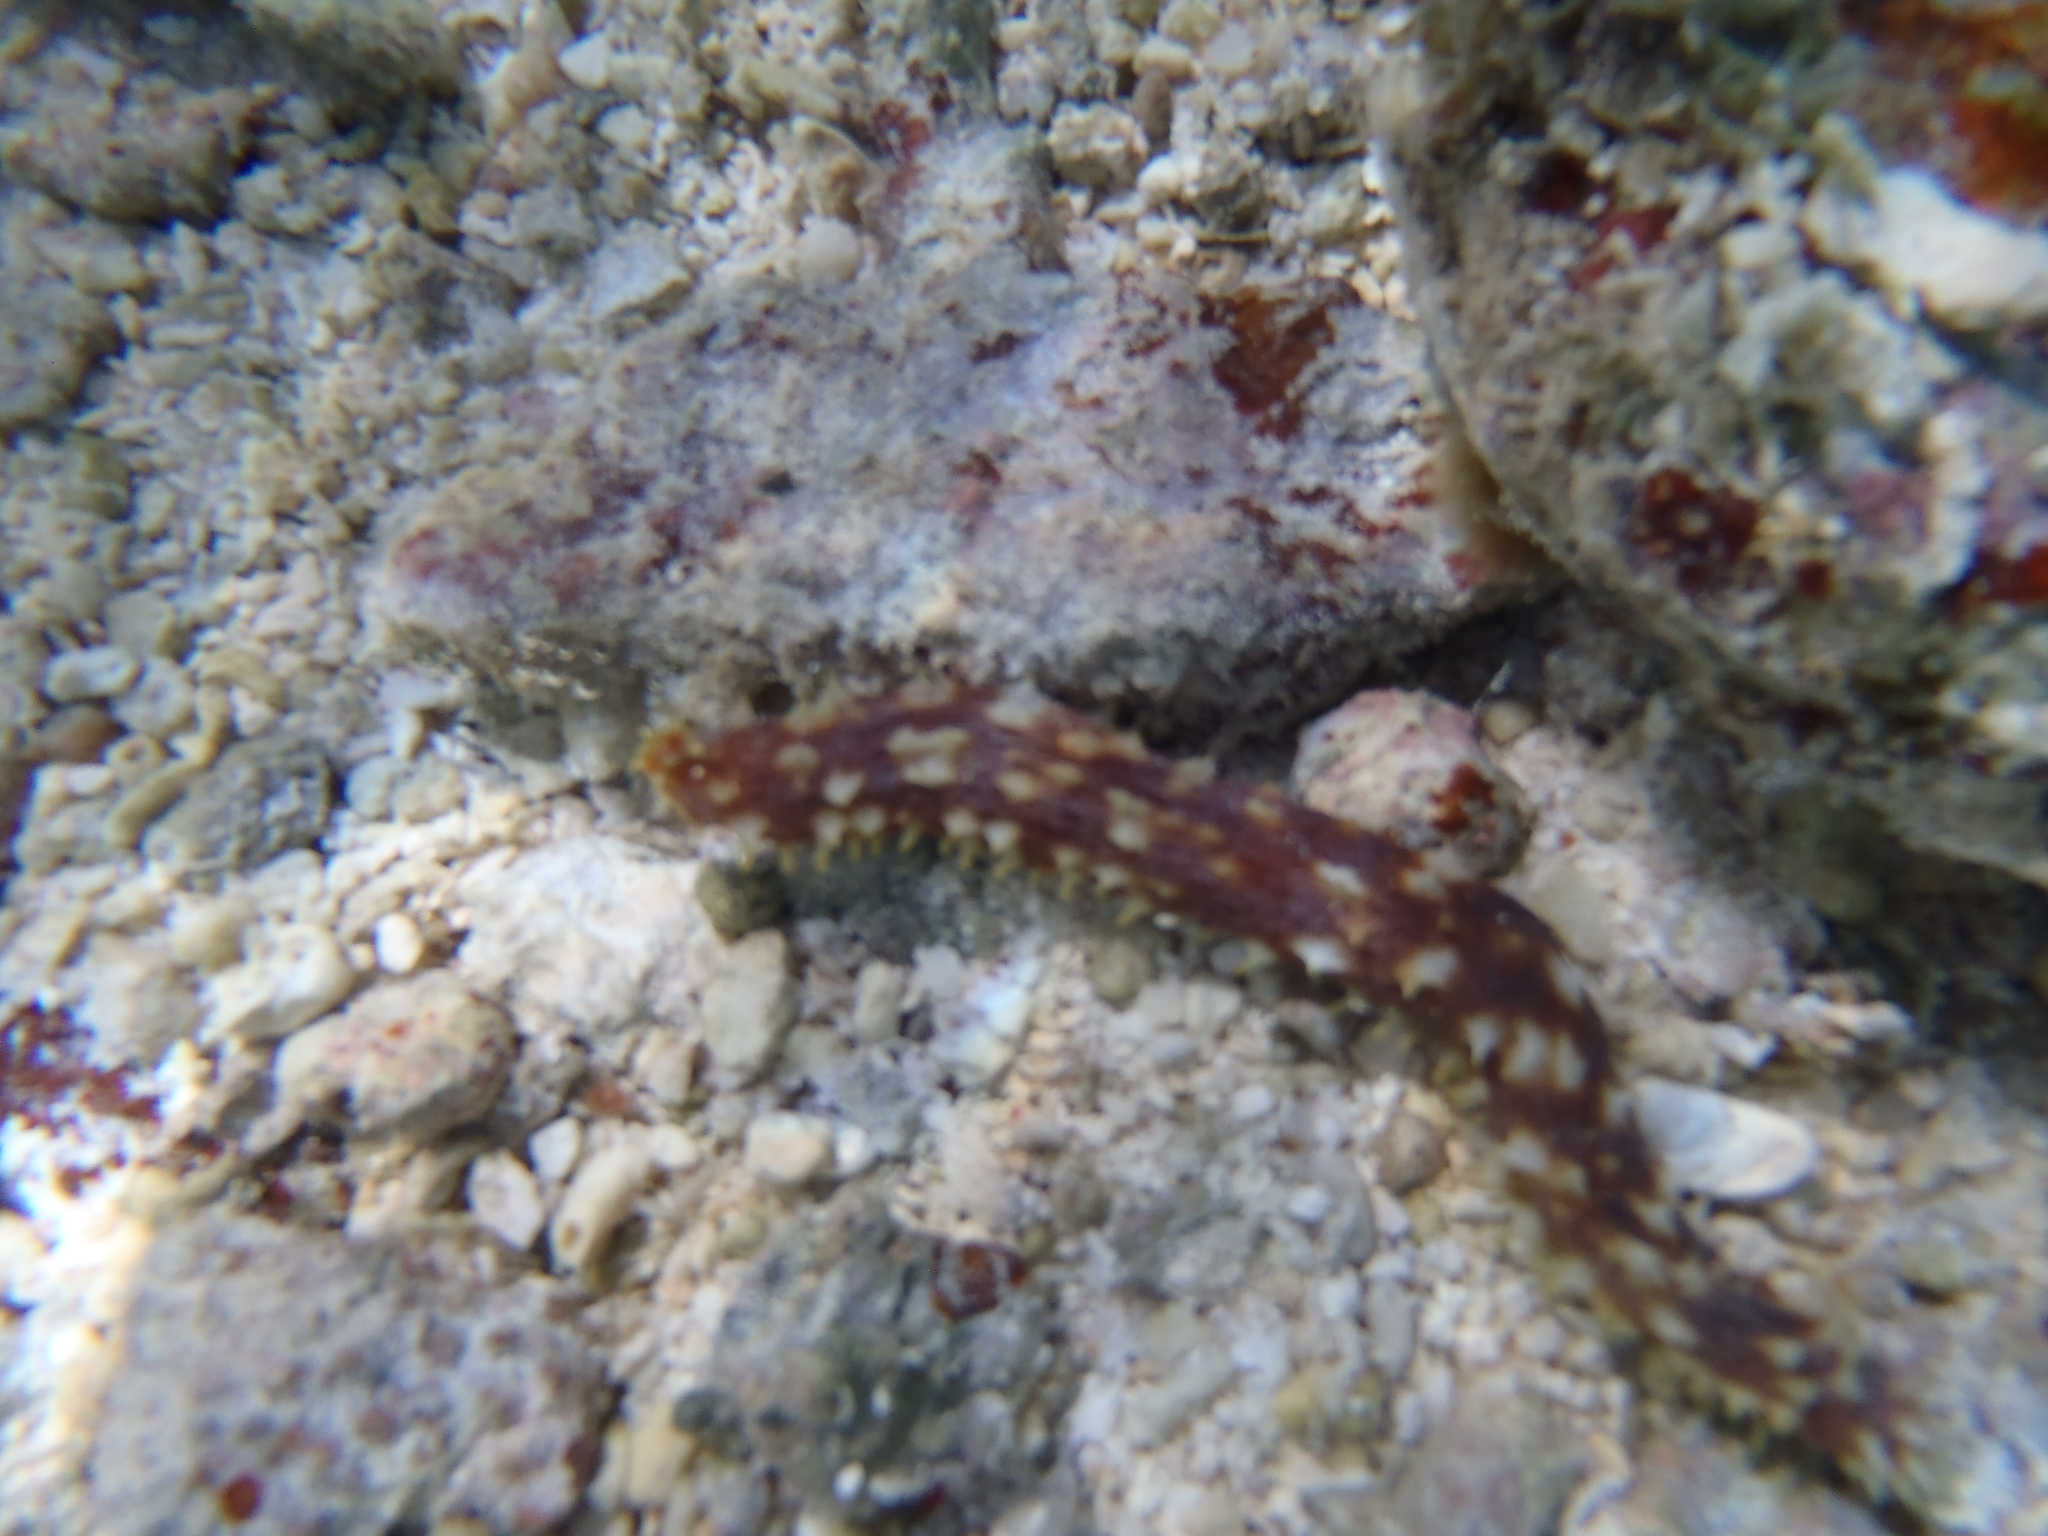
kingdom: Animalia
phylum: Echinodermata
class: Holothuroidea
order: Holothuriida
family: Holothuriidae
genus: Holothuria
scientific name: Holothuria hilla
